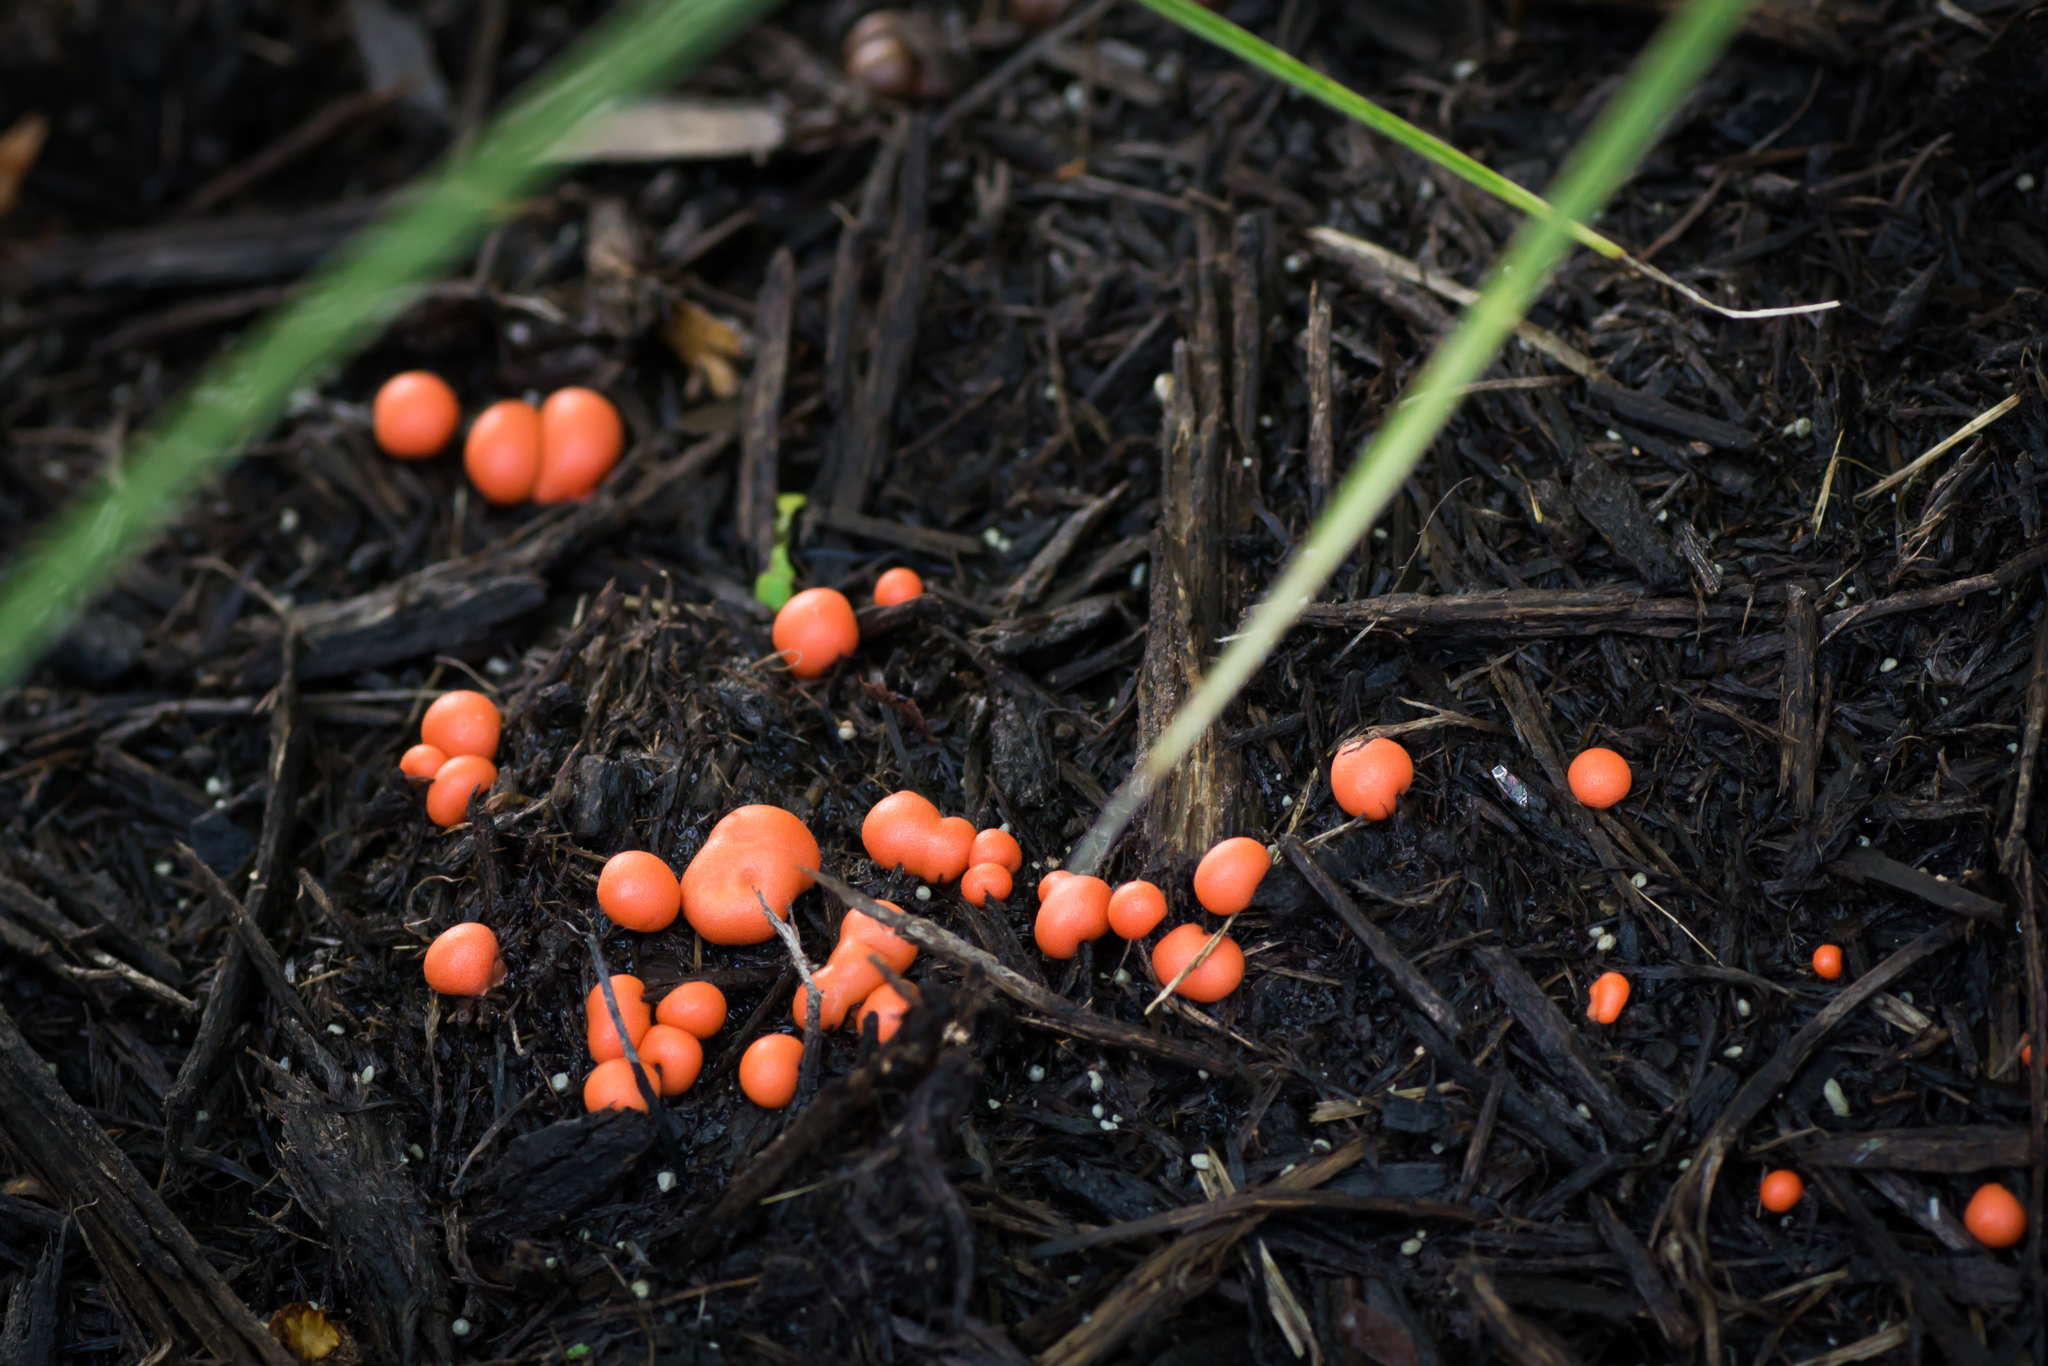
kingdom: Protozoa
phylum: Mycetozoa
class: Myxomycetes
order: Cribrariales
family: Tubiferaceae
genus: Lycogala
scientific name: Lycogala epidendrum
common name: Wolf's milk
